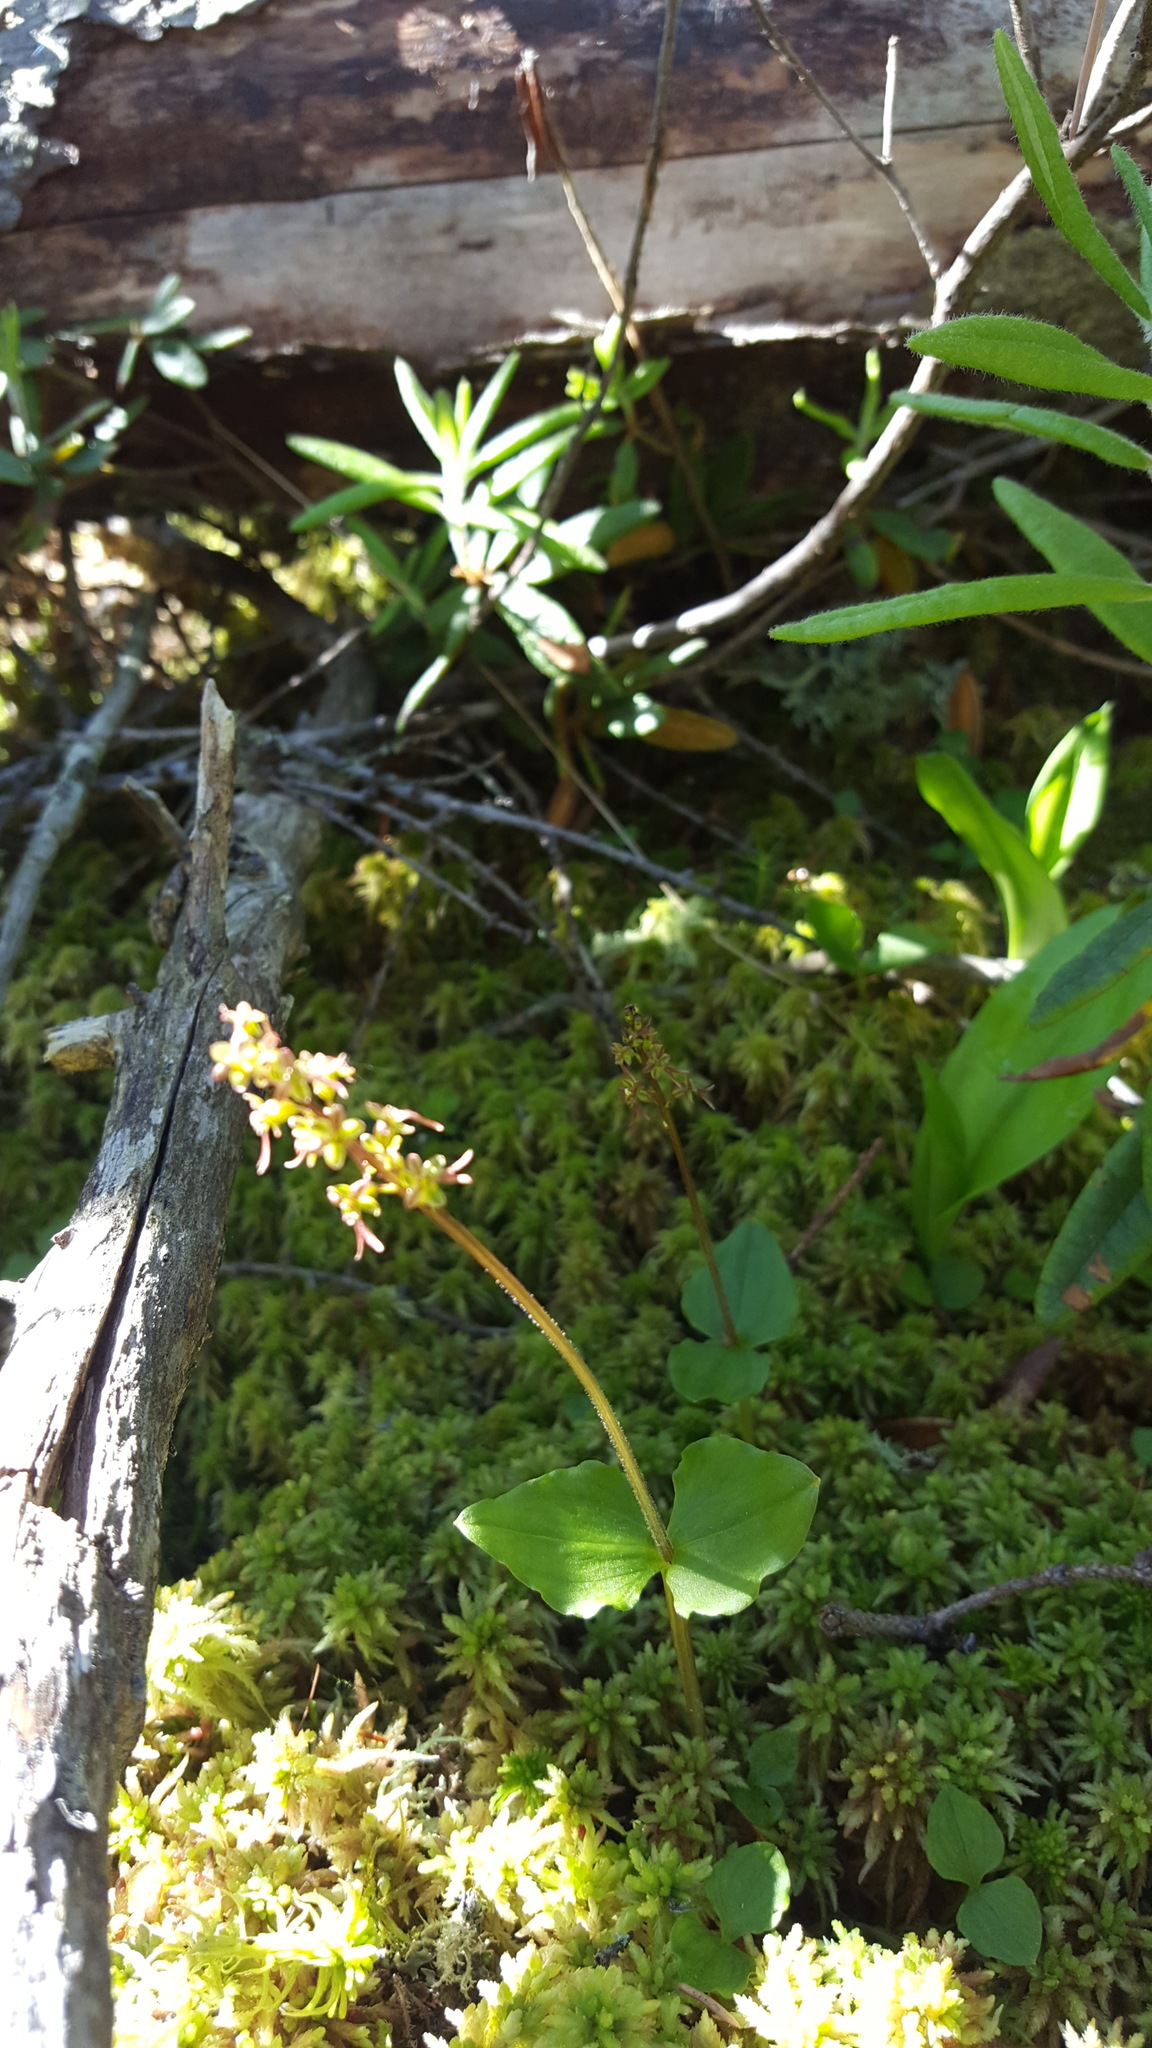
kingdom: Plantae
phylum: Tracheophyta
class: Liliopsida
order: Asparagales
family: Orchidaceae
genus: Neottia
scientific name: Neottia cordata
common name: Lesser twayblade
